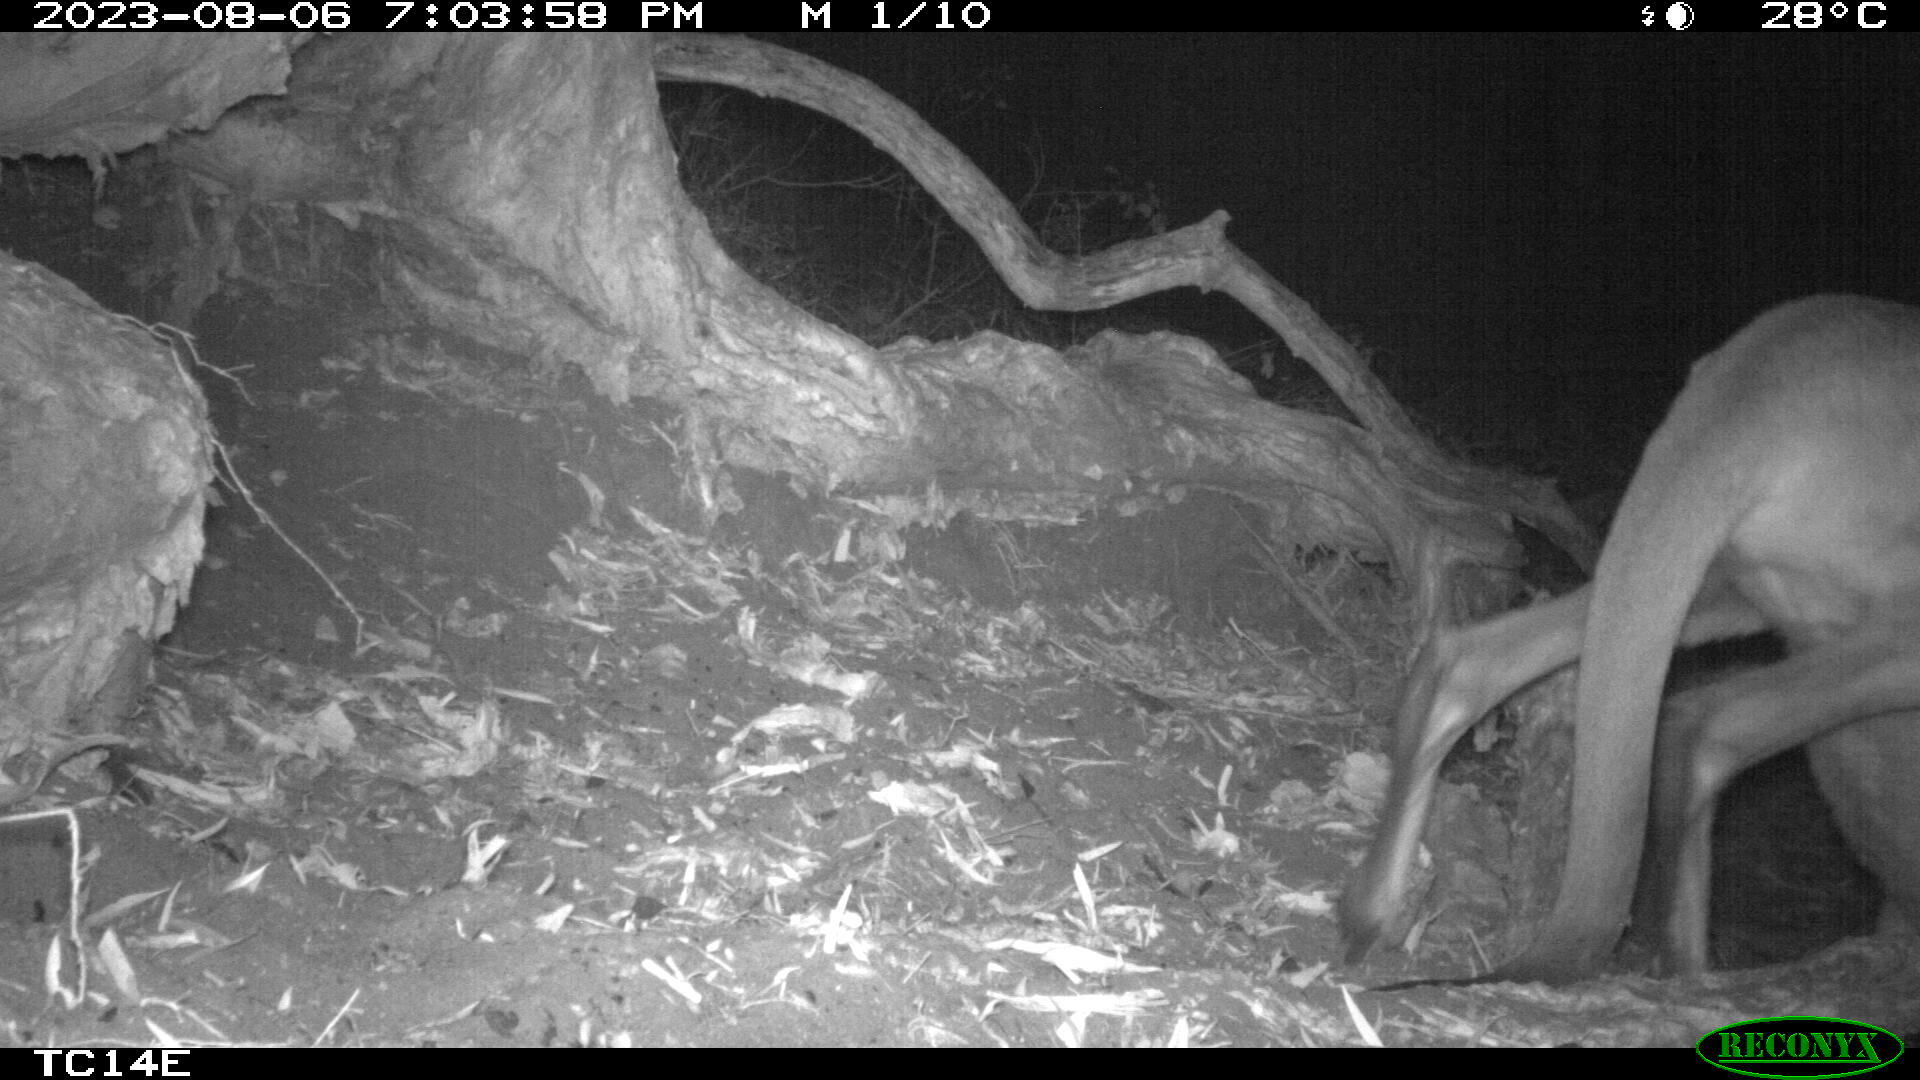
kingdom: Animalia
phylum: Chordata
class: Mammalia
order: Diprotodontia
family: Macropodidae
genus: Macropus
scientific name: Macropus giganteus
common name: Eastern grey kangaroo
